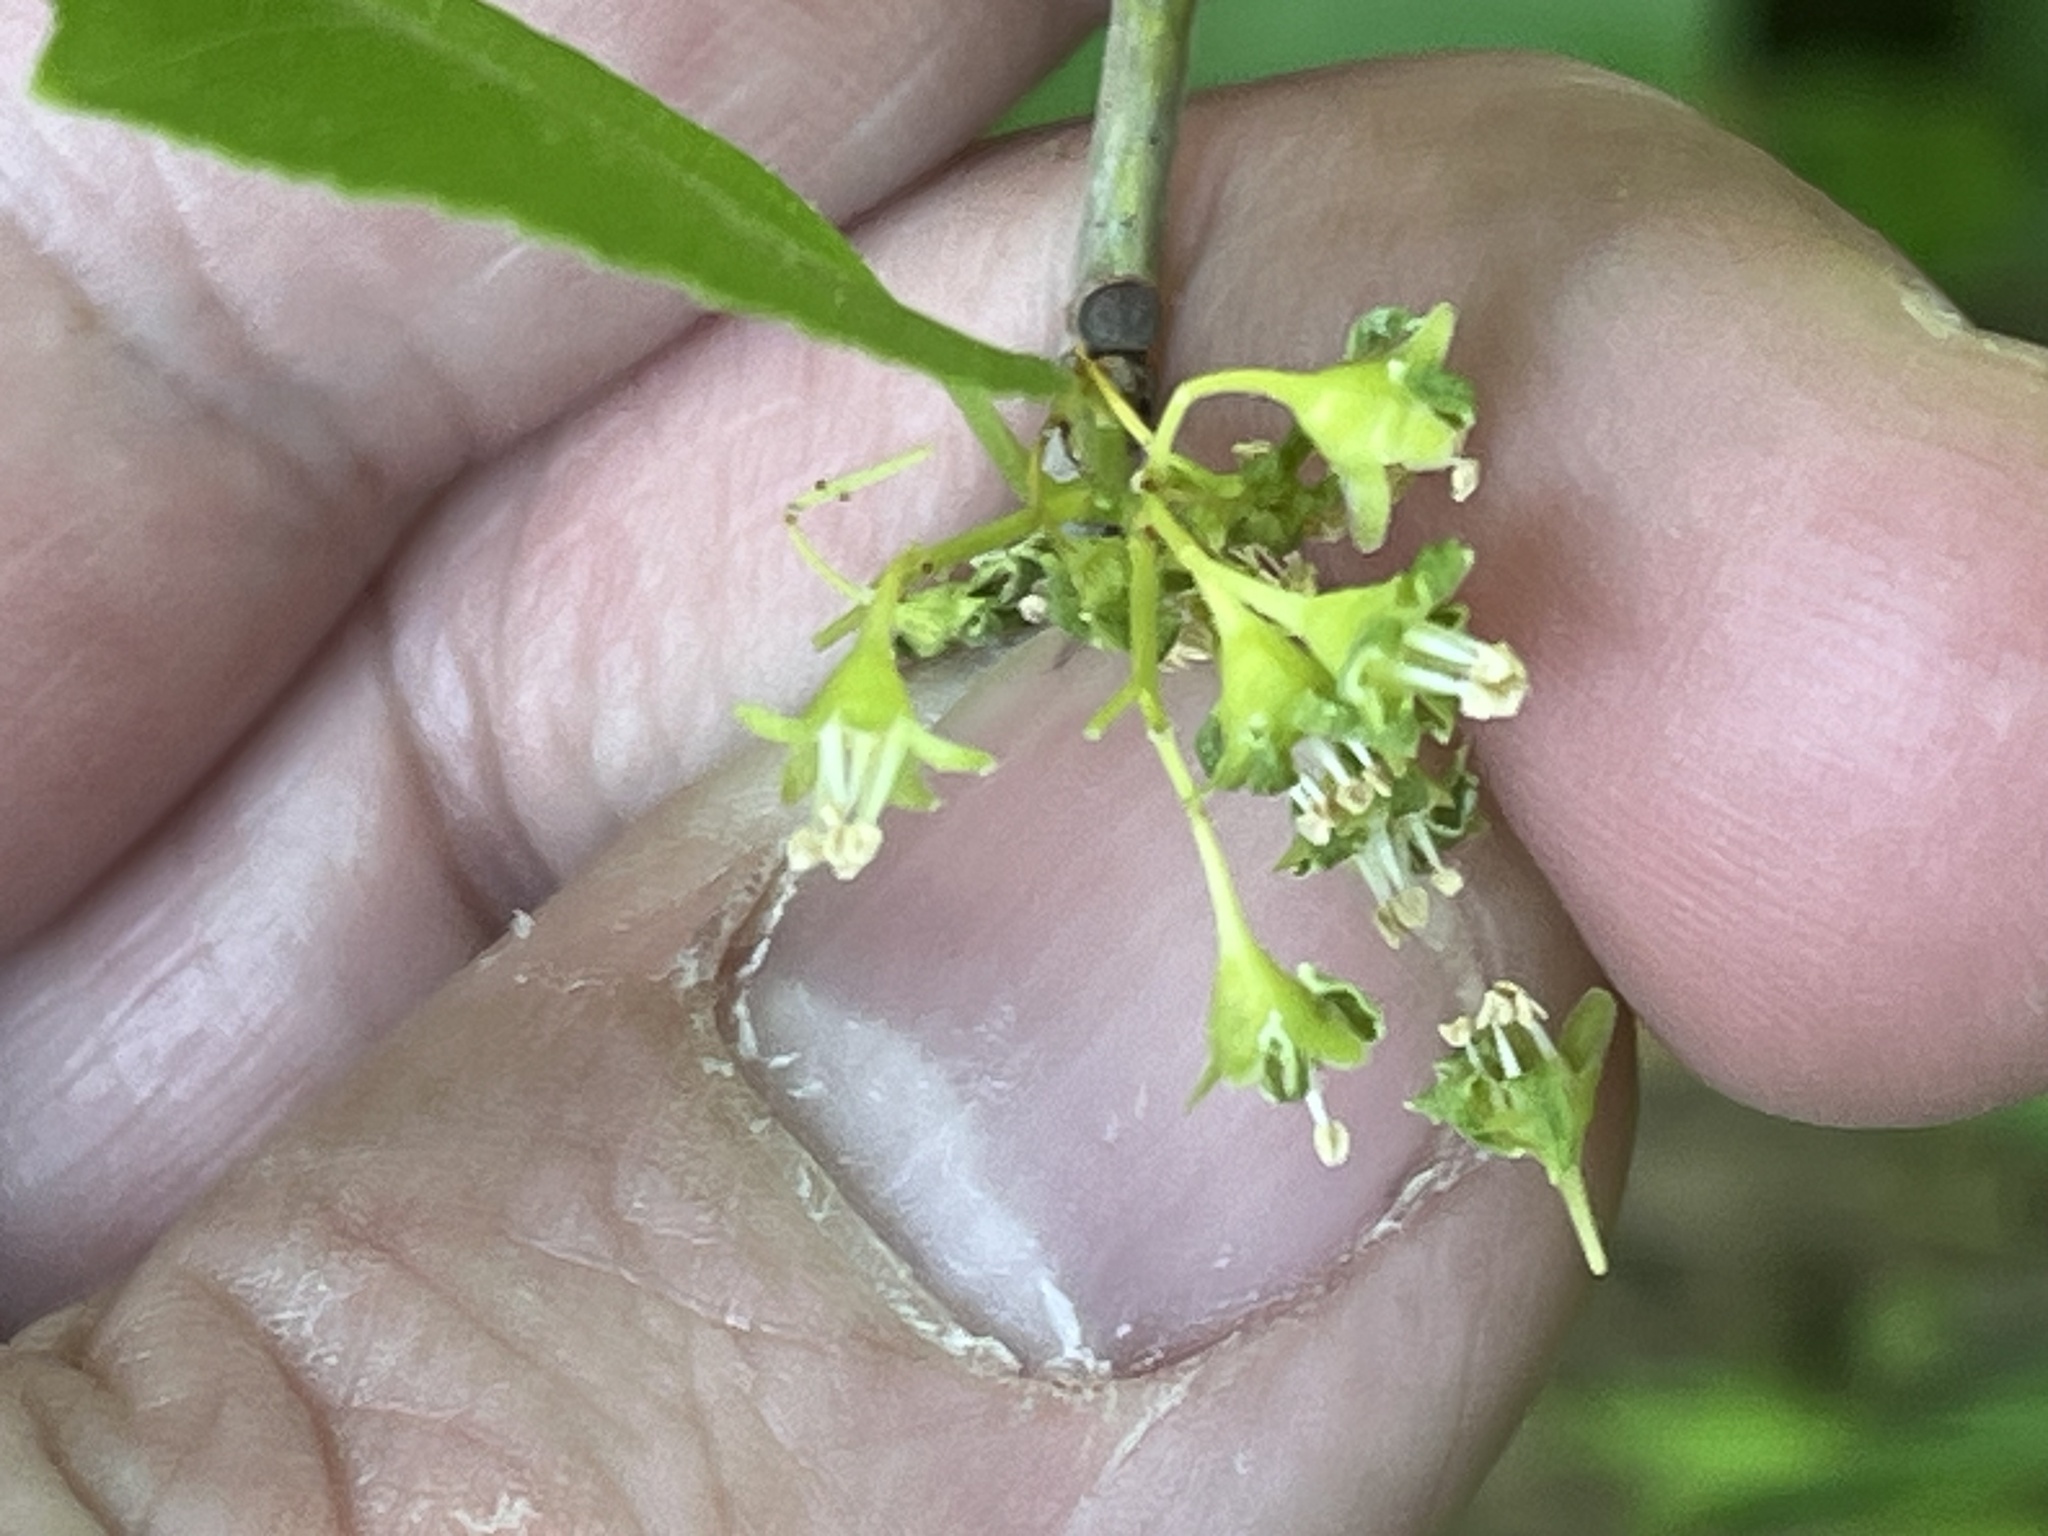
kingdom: Plantae
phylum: Tracheophyta
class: Magnoliopsida
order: Celastrales
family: Celastraceae
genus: Celastrus
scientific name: Celastrus orbiculatus
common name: Oriental bittersweet
